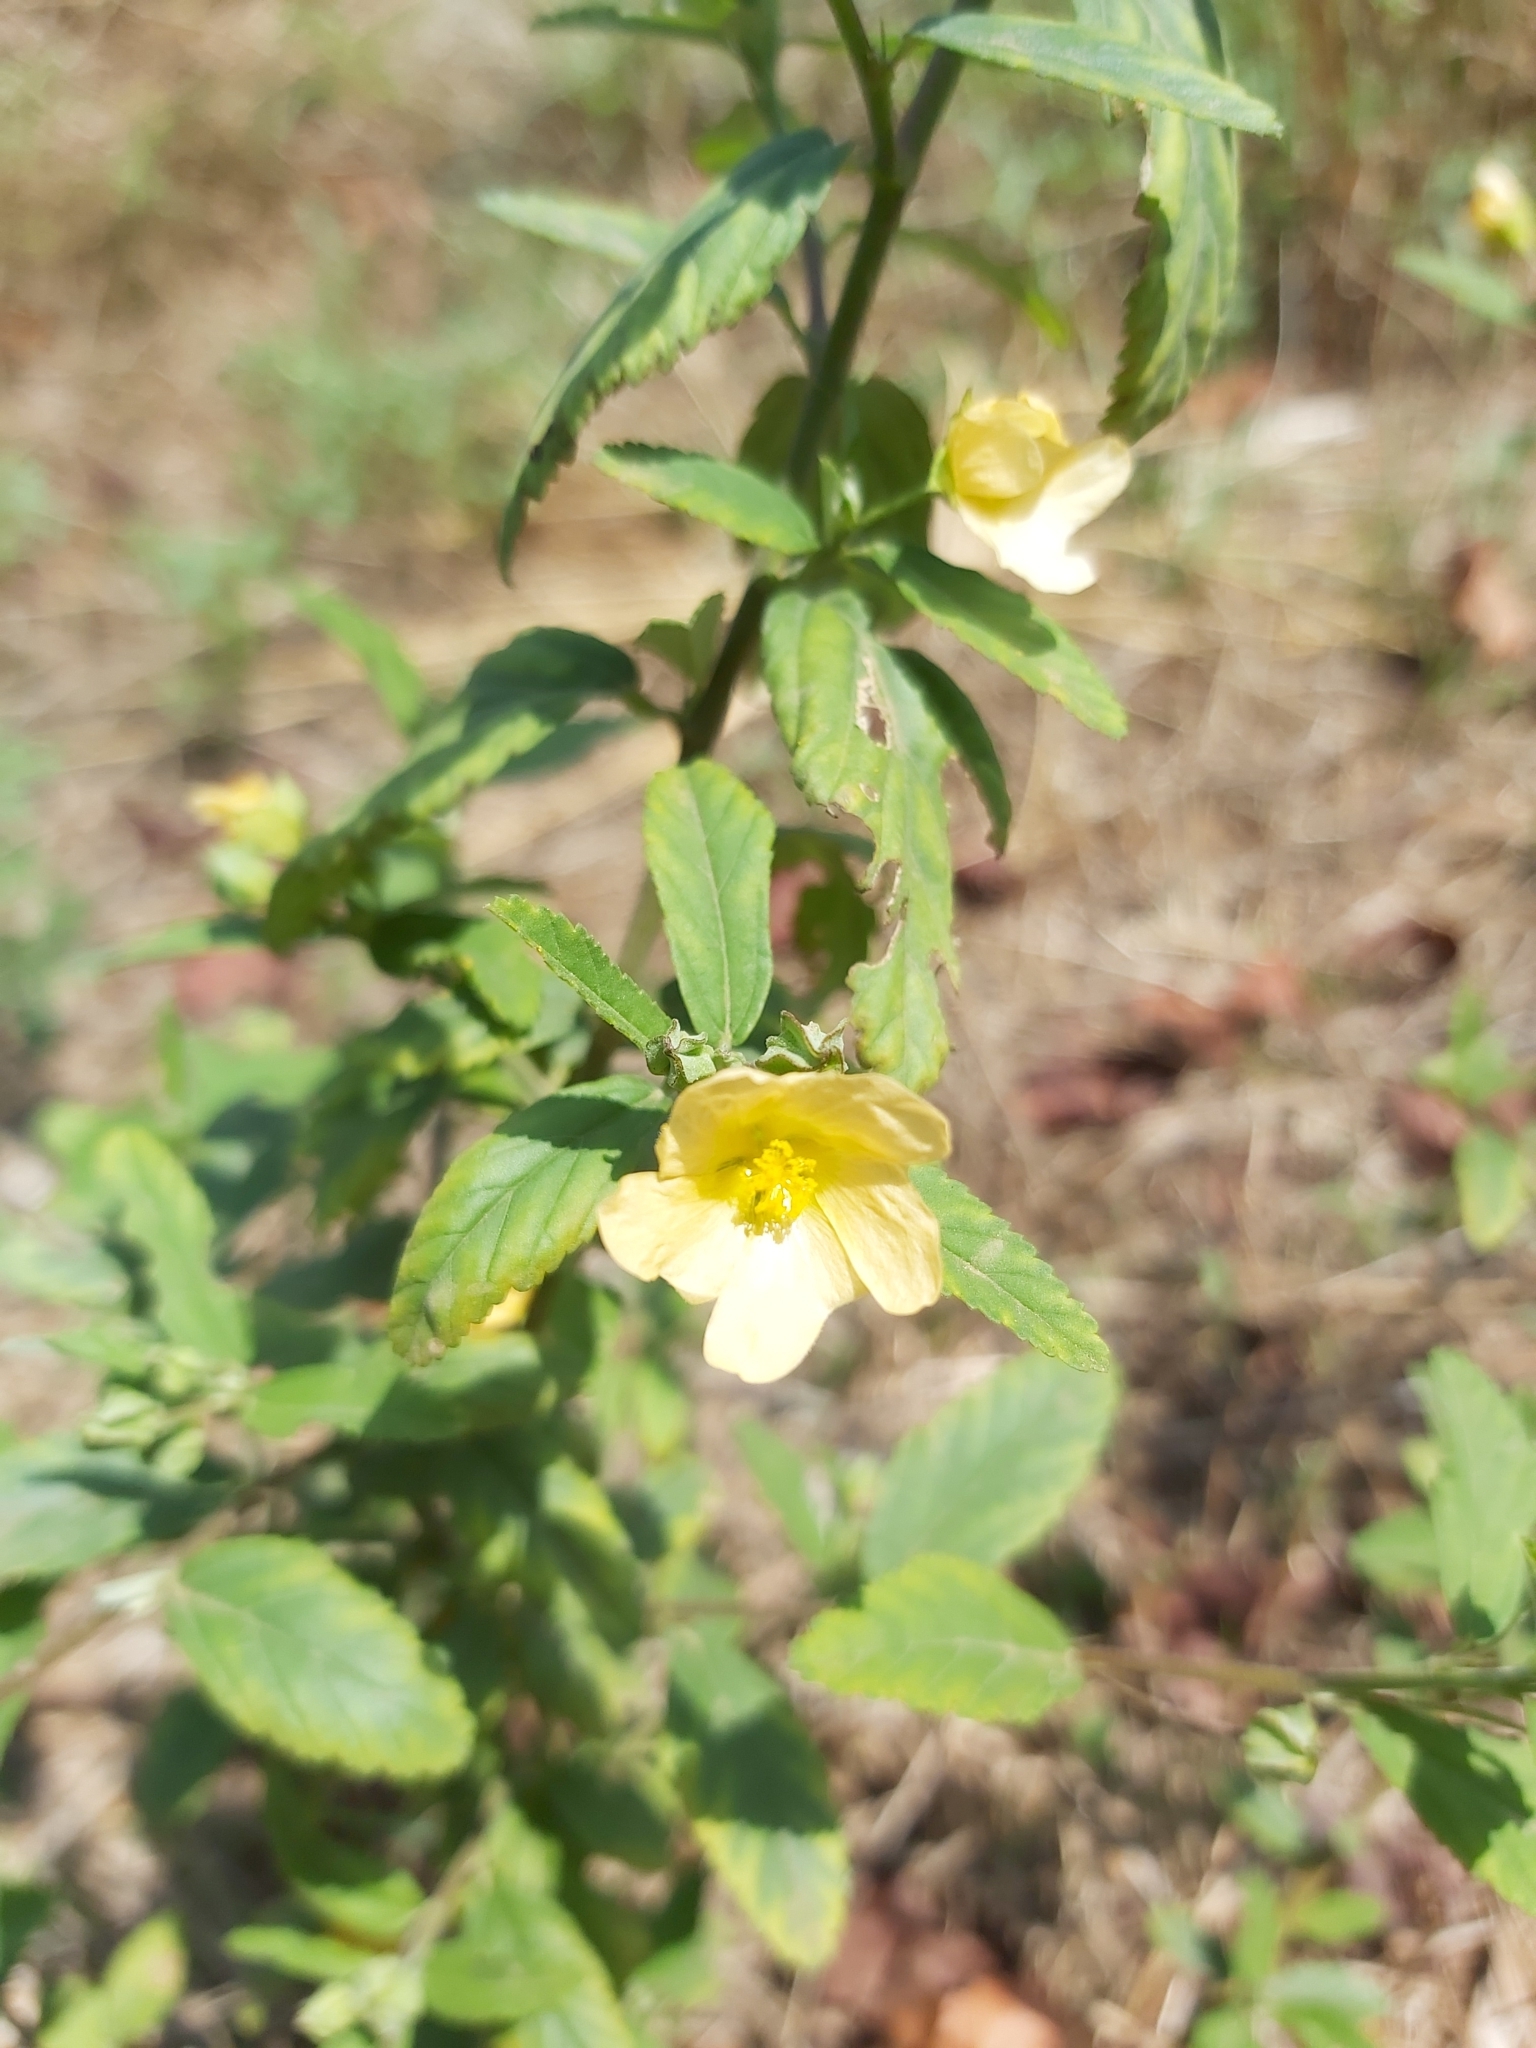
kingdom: Plantae
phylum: Tracheophyta
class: Magnoliopsida
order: Malvales
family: Malvaceae
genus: Sida
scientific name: Sida rhombifolia
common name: Queensland-hemp
